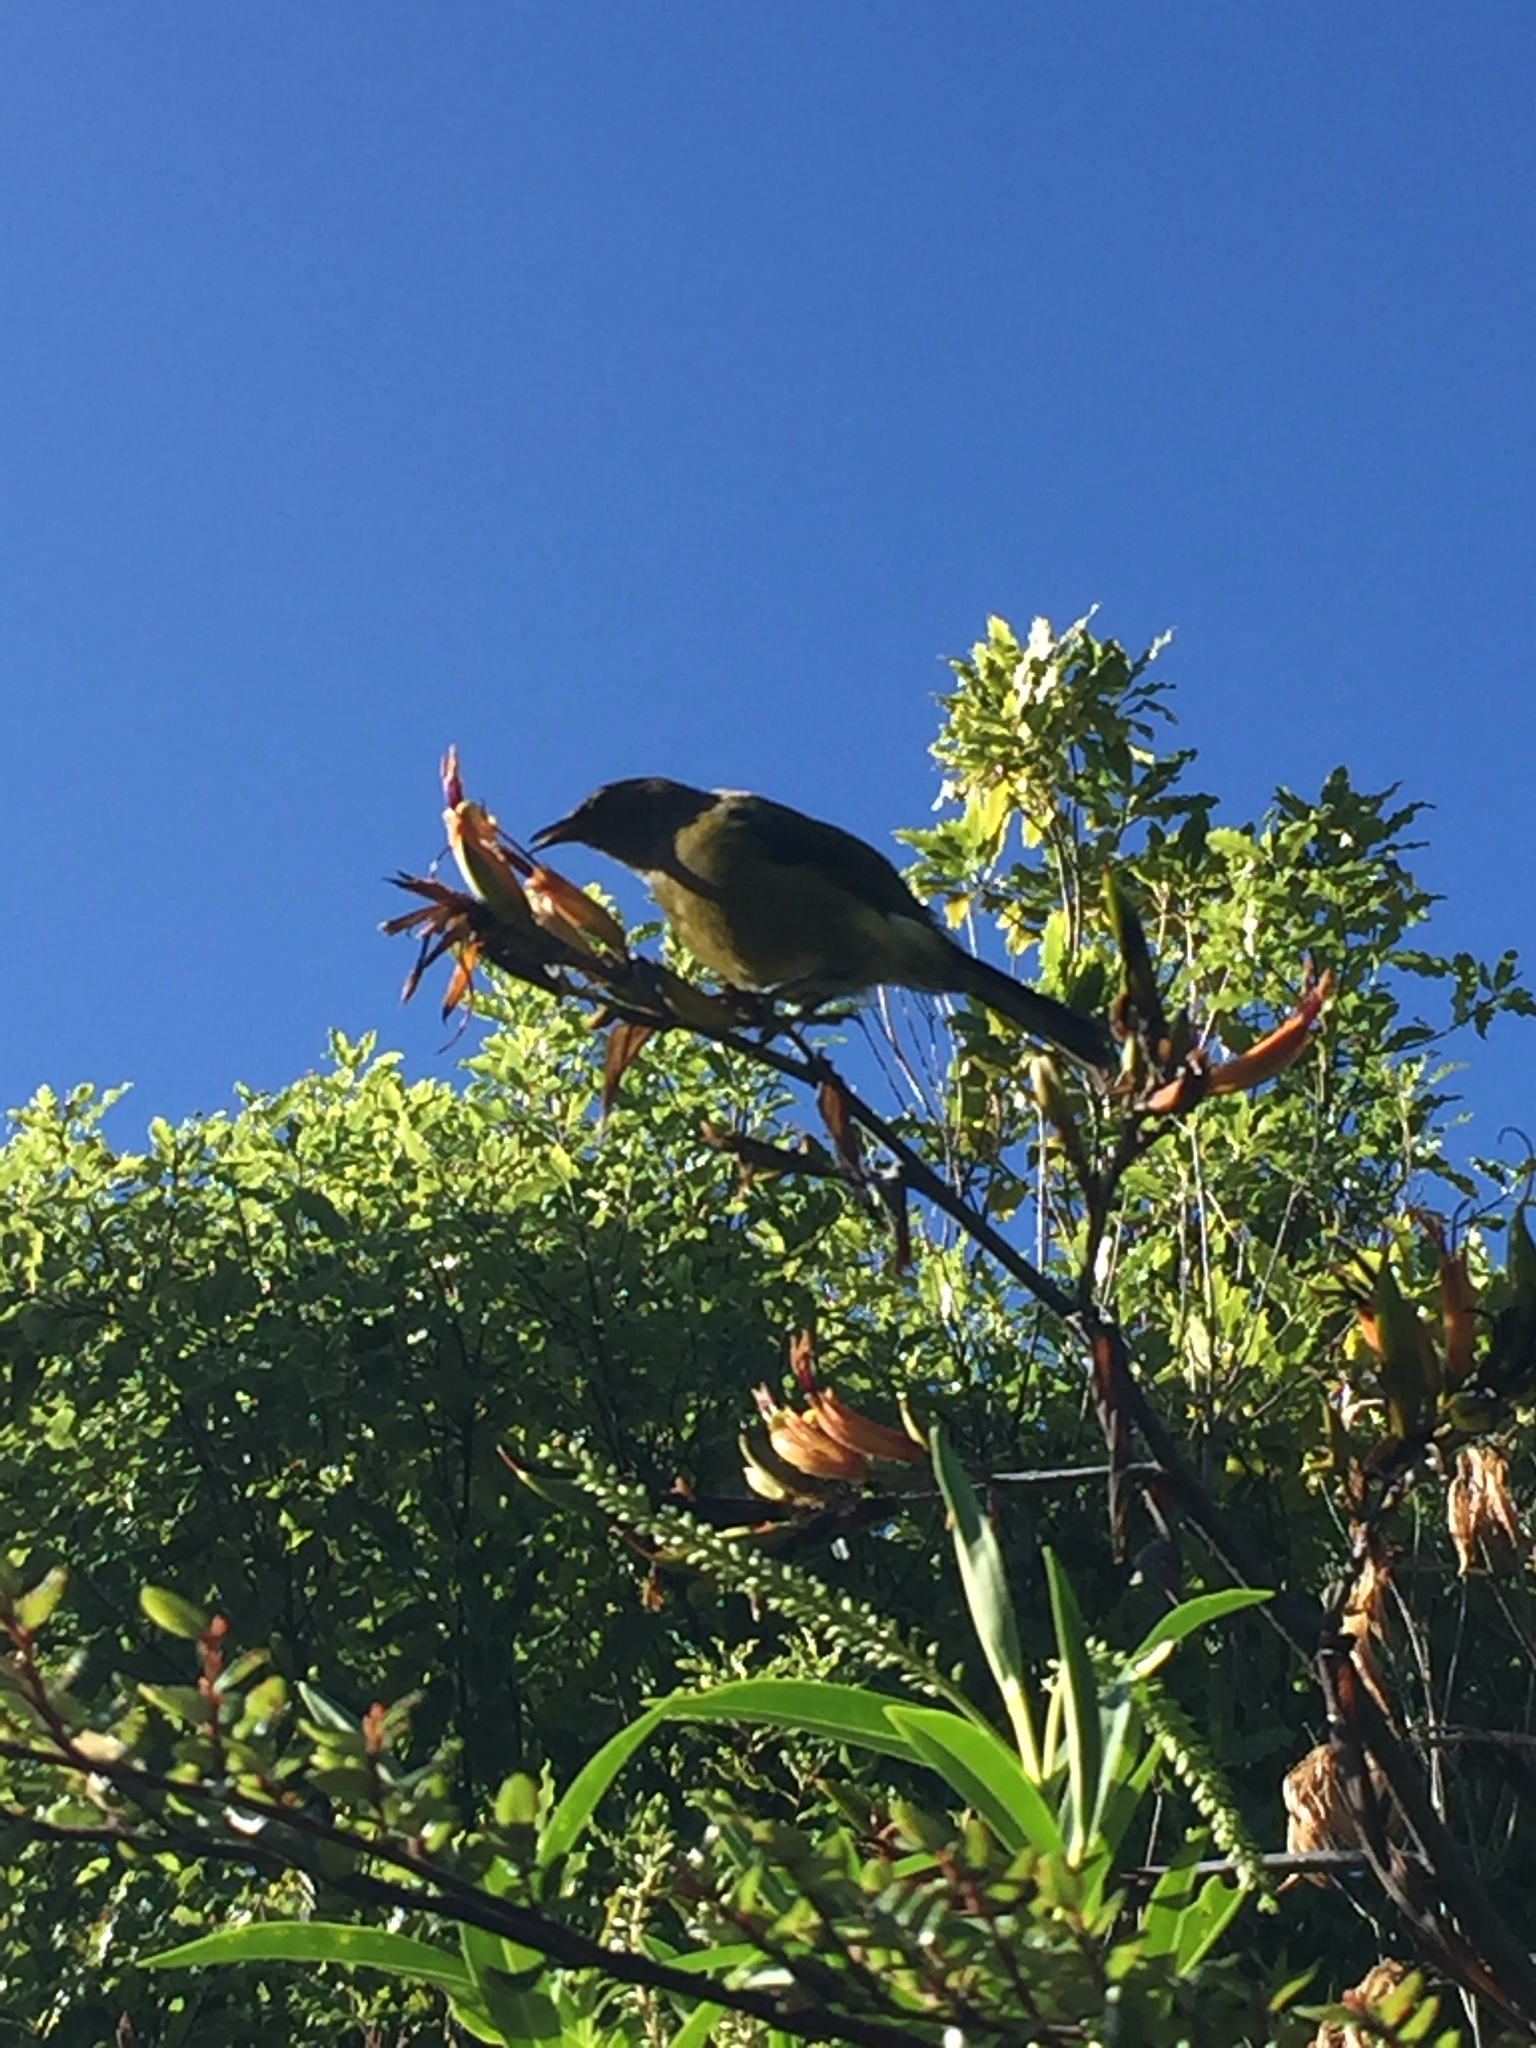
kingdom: Animalia
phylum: Chordata
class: Aves
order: Passeriformes
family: Meliphagidae
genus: Anthornis
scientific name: Anthornis melanura
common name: New zealand bellbird
